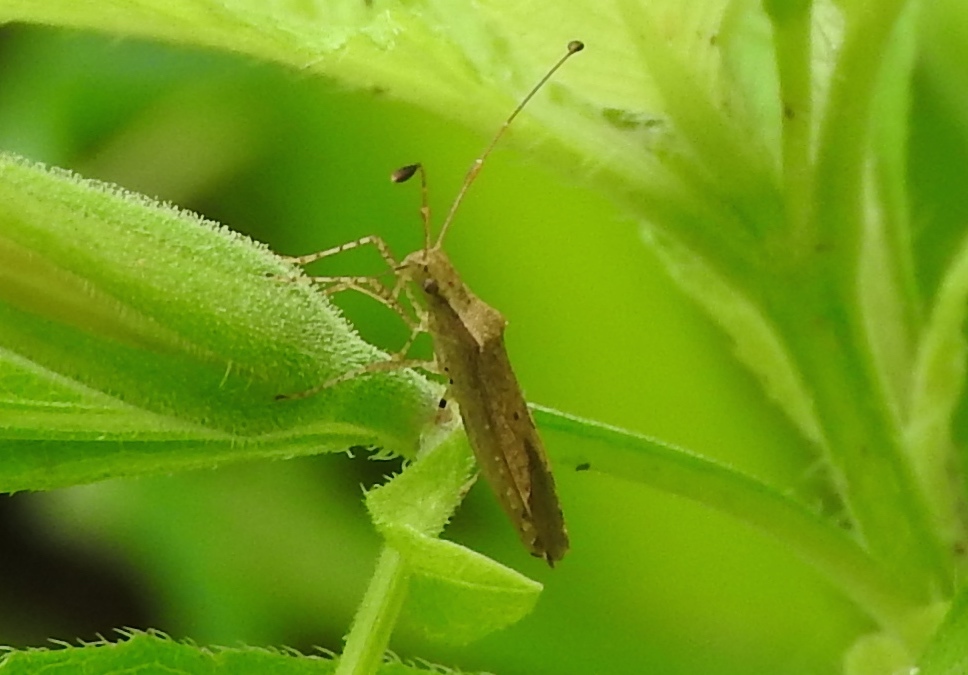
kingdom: Animalia
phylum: Arthropoda
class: Insecta
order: Hemiptera
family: Coreidae
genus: Madura
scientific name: Madura
